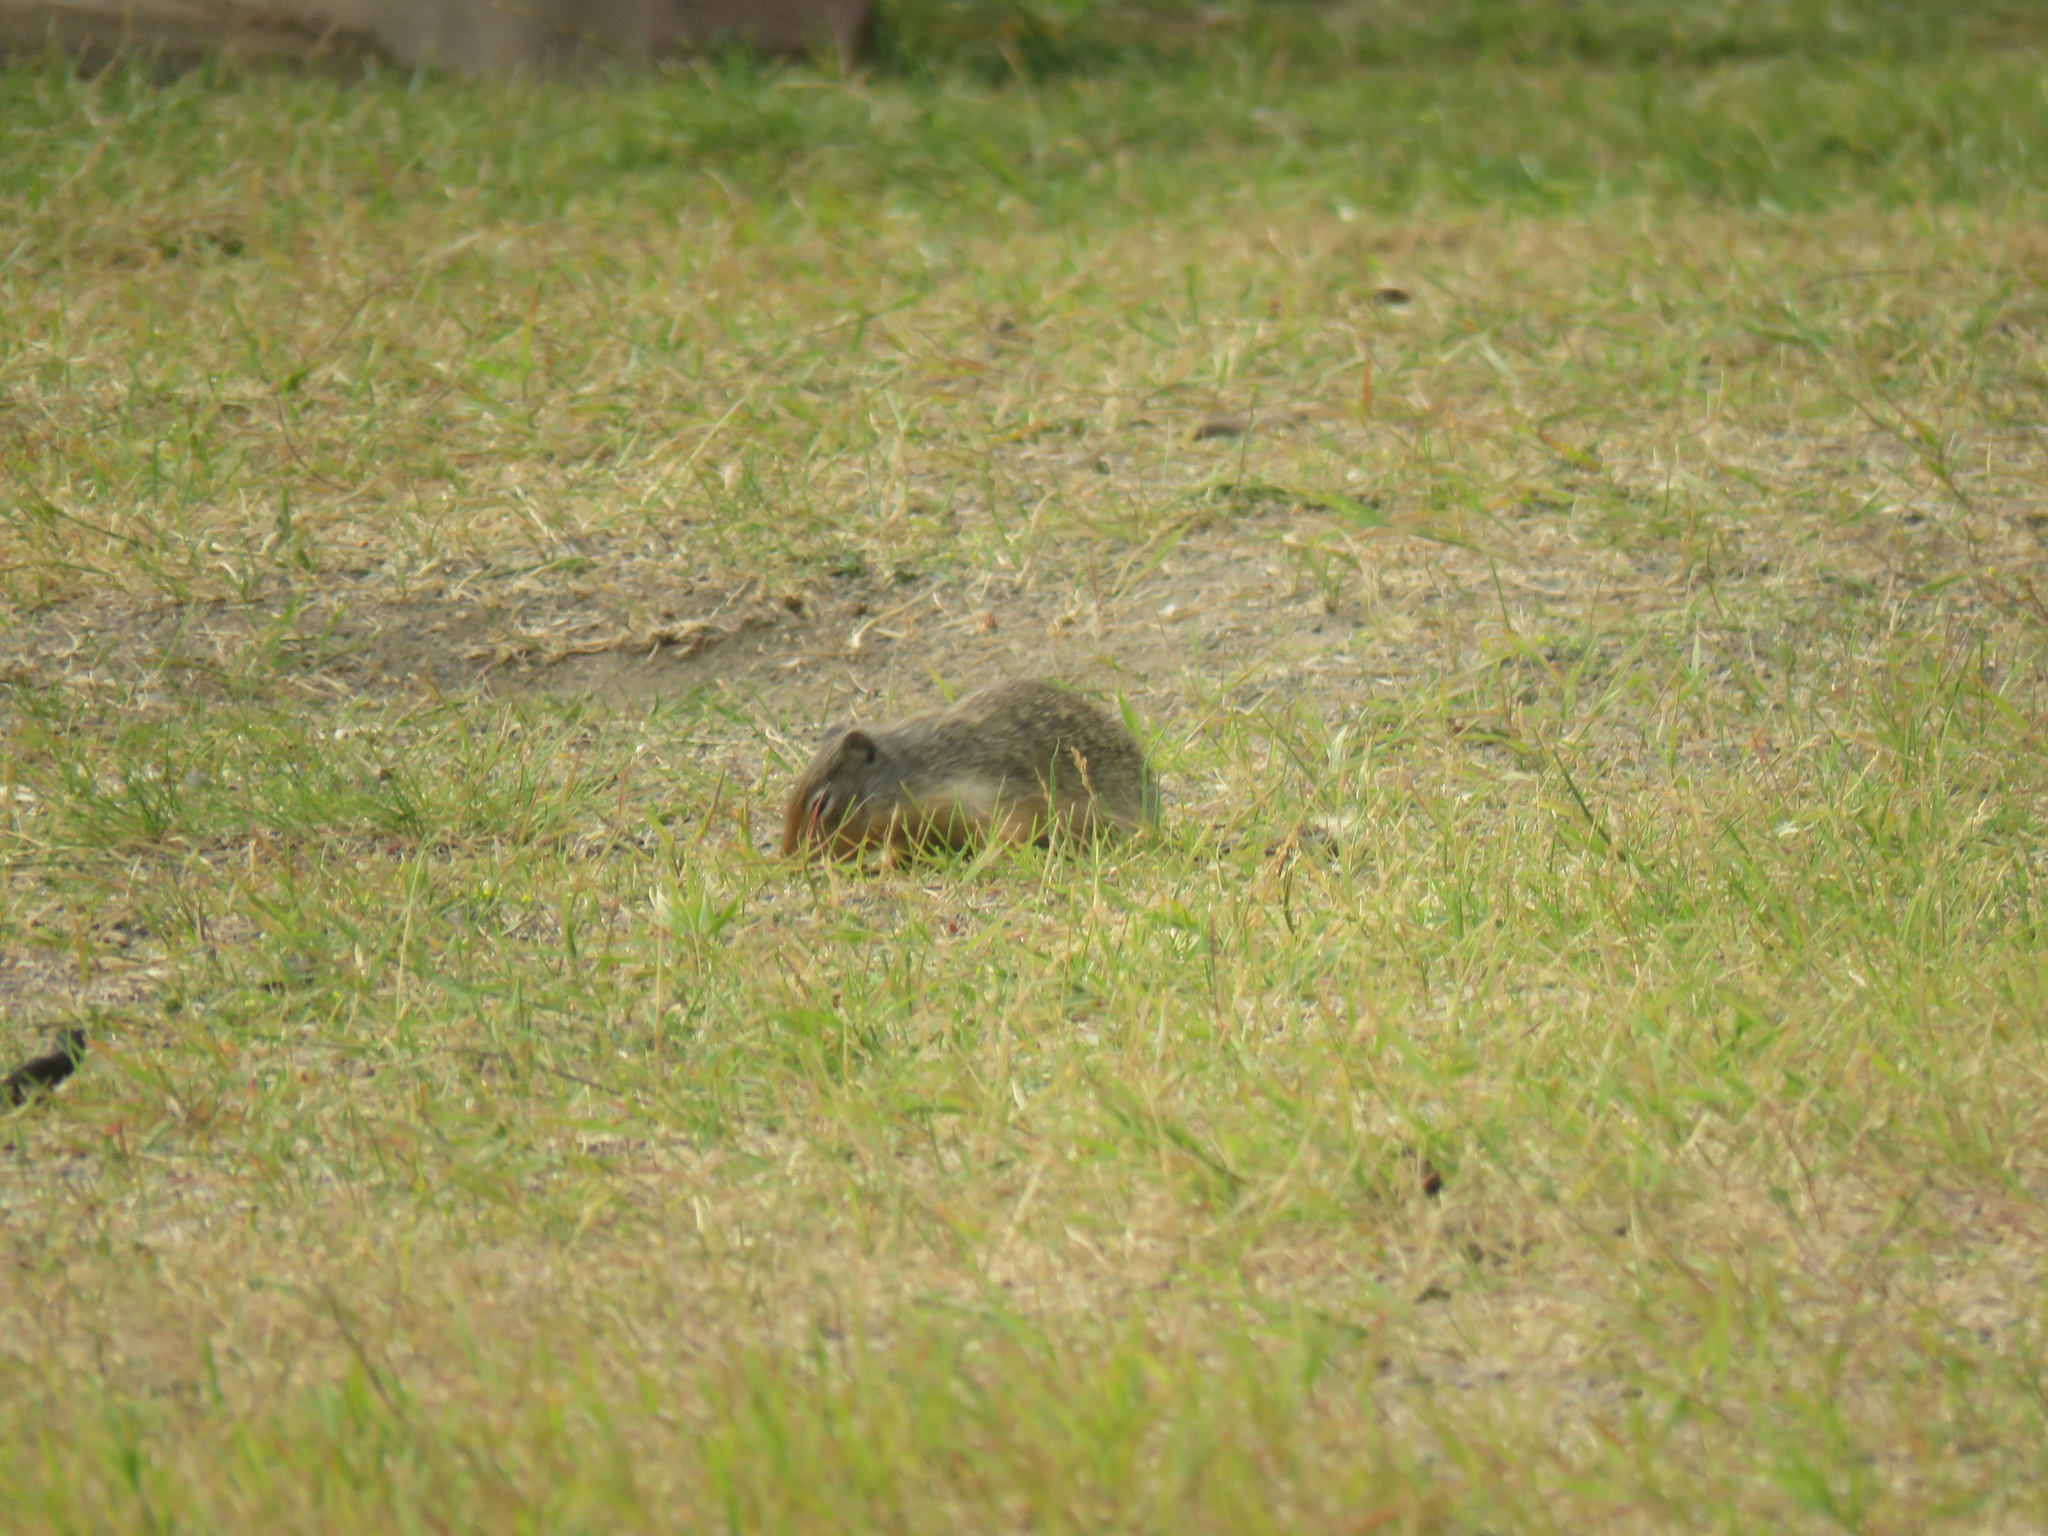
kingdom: Animalia
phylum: Chordata
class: Mammalia
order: Rodentia
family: Sciuridae
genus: Urocitellus
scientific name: Urocitellus columbianus
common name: Columbian ground squirrel
